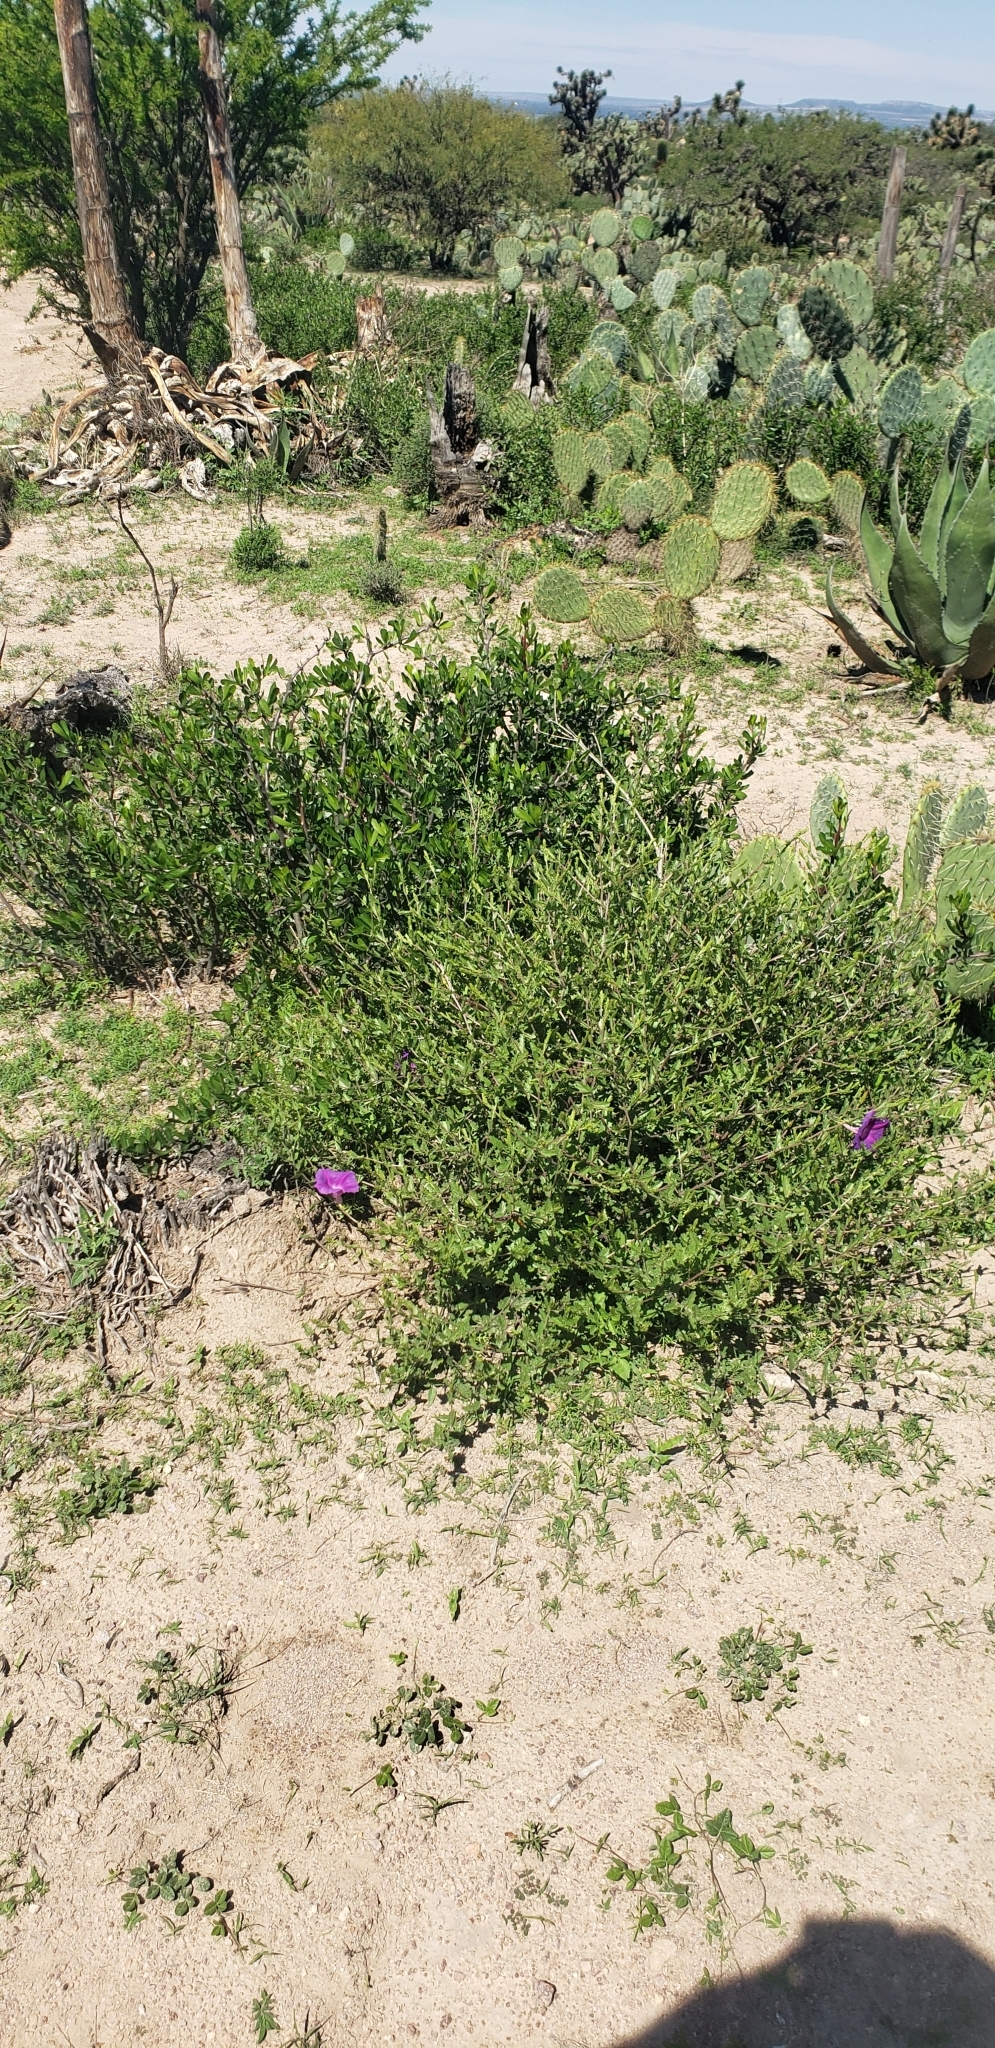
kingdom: Plantae
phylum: Tracheophyta
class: Magnoliopsida
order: Solanales
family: Convolvulaceae
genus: Ipomoea
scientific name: Ipomoea stans
